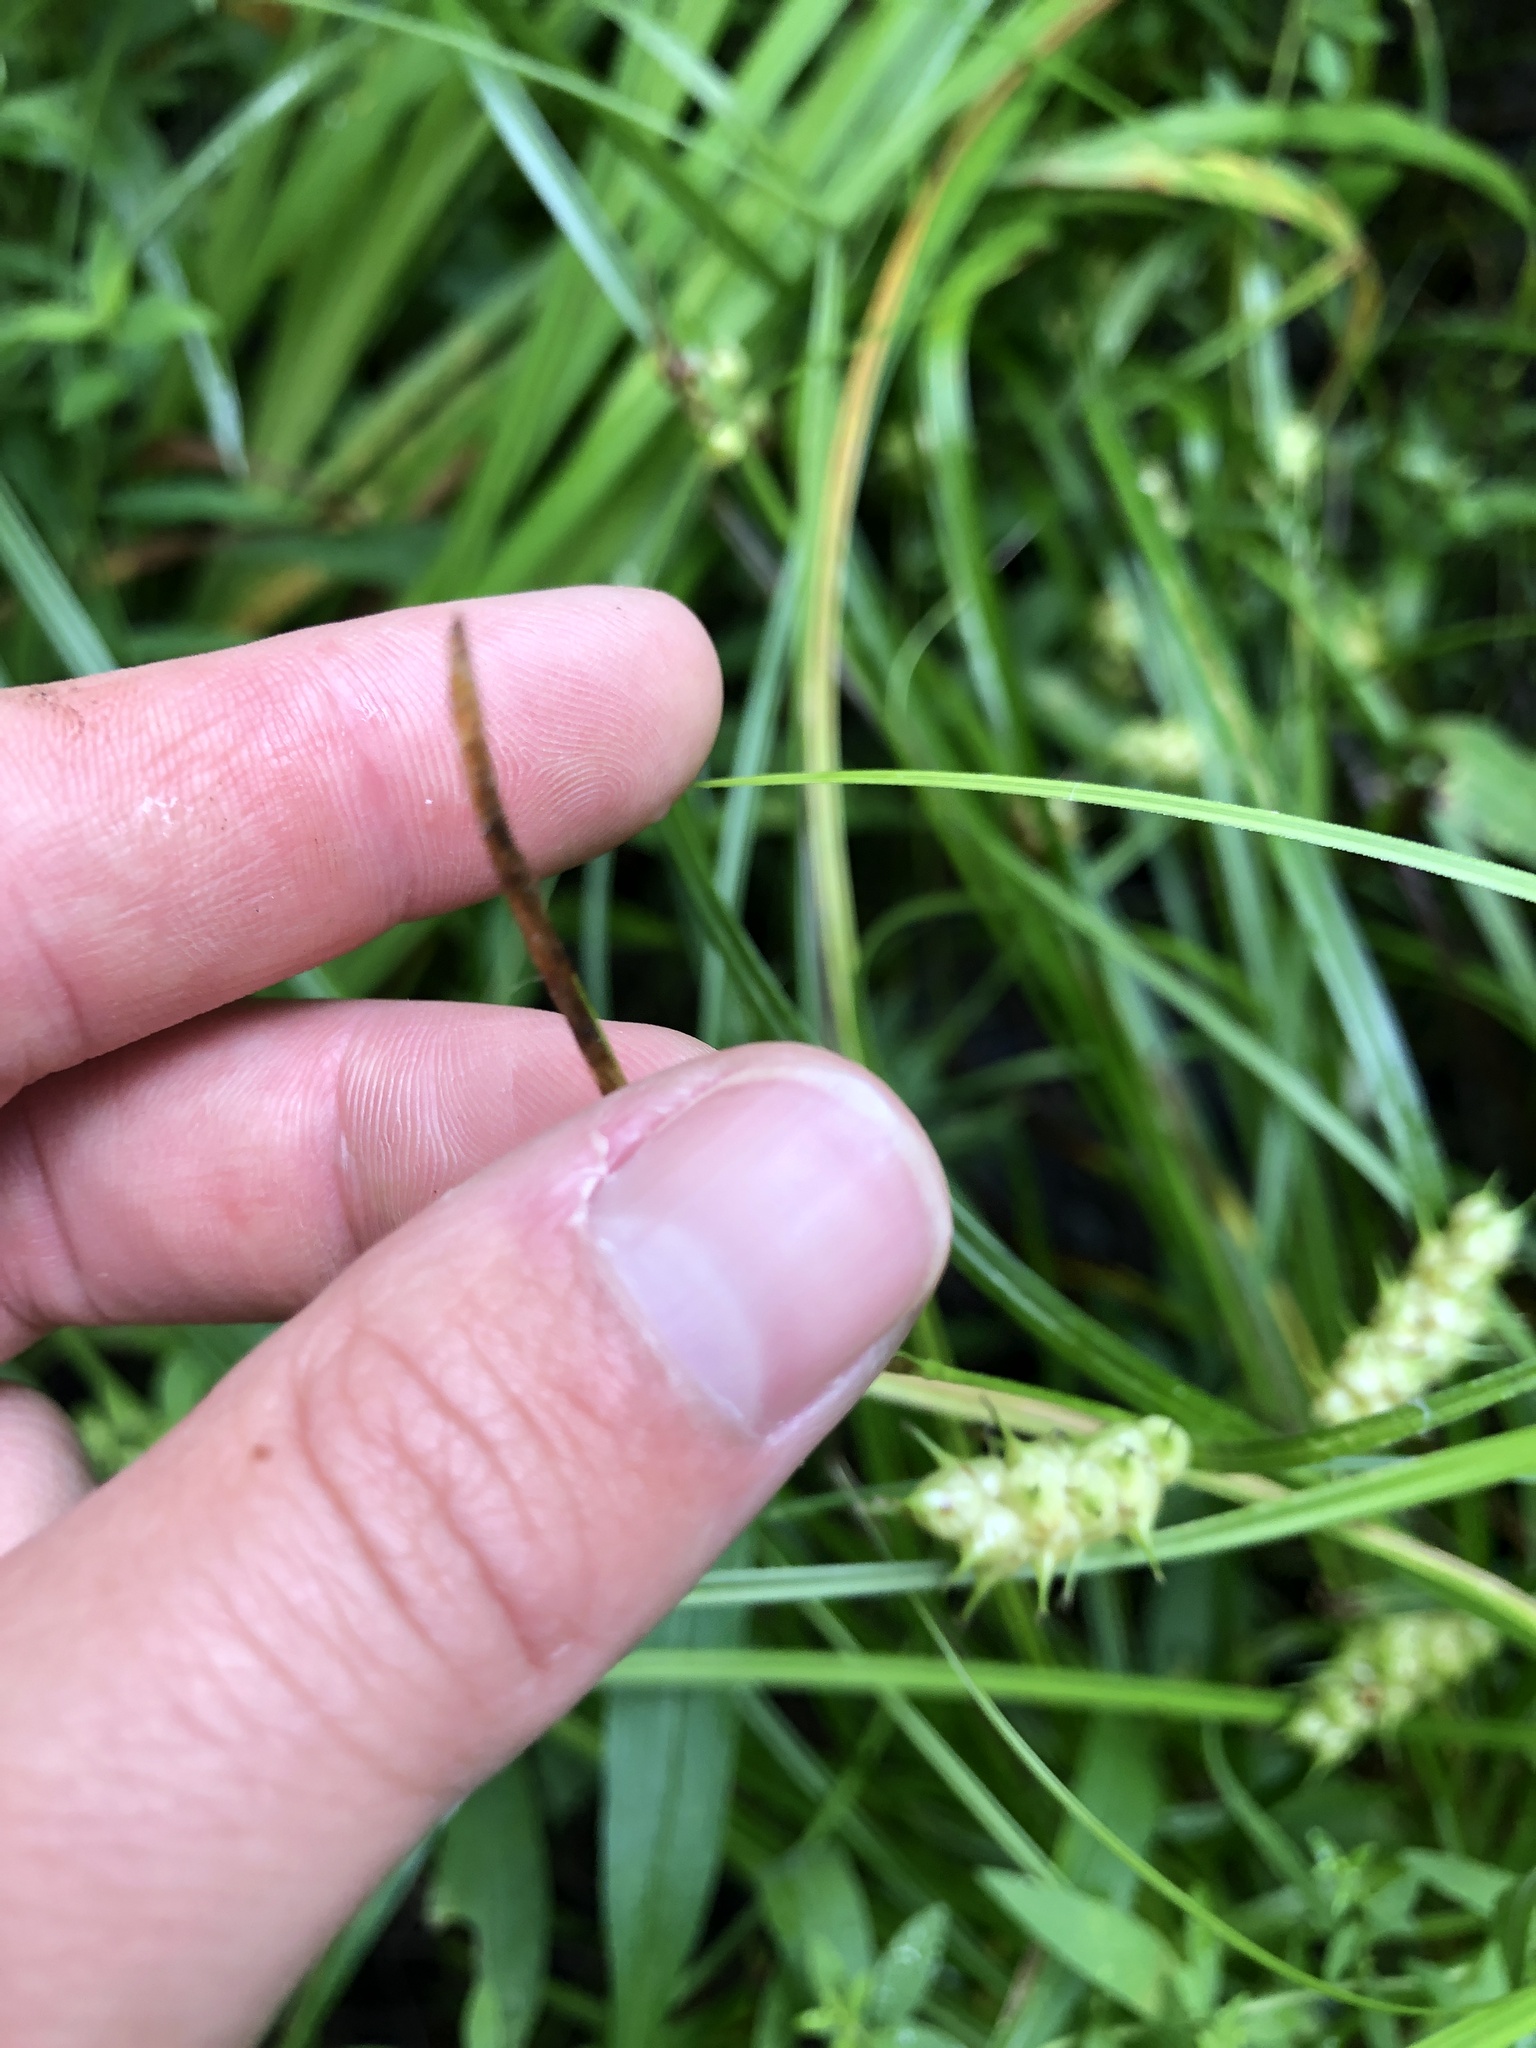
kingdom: Plantae
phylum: Tracheophyta
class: Liliopsida
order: Poales
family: Cyperaceae
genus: Carex
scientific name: Carex tuckermanii
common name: Tuckerman's sedge
